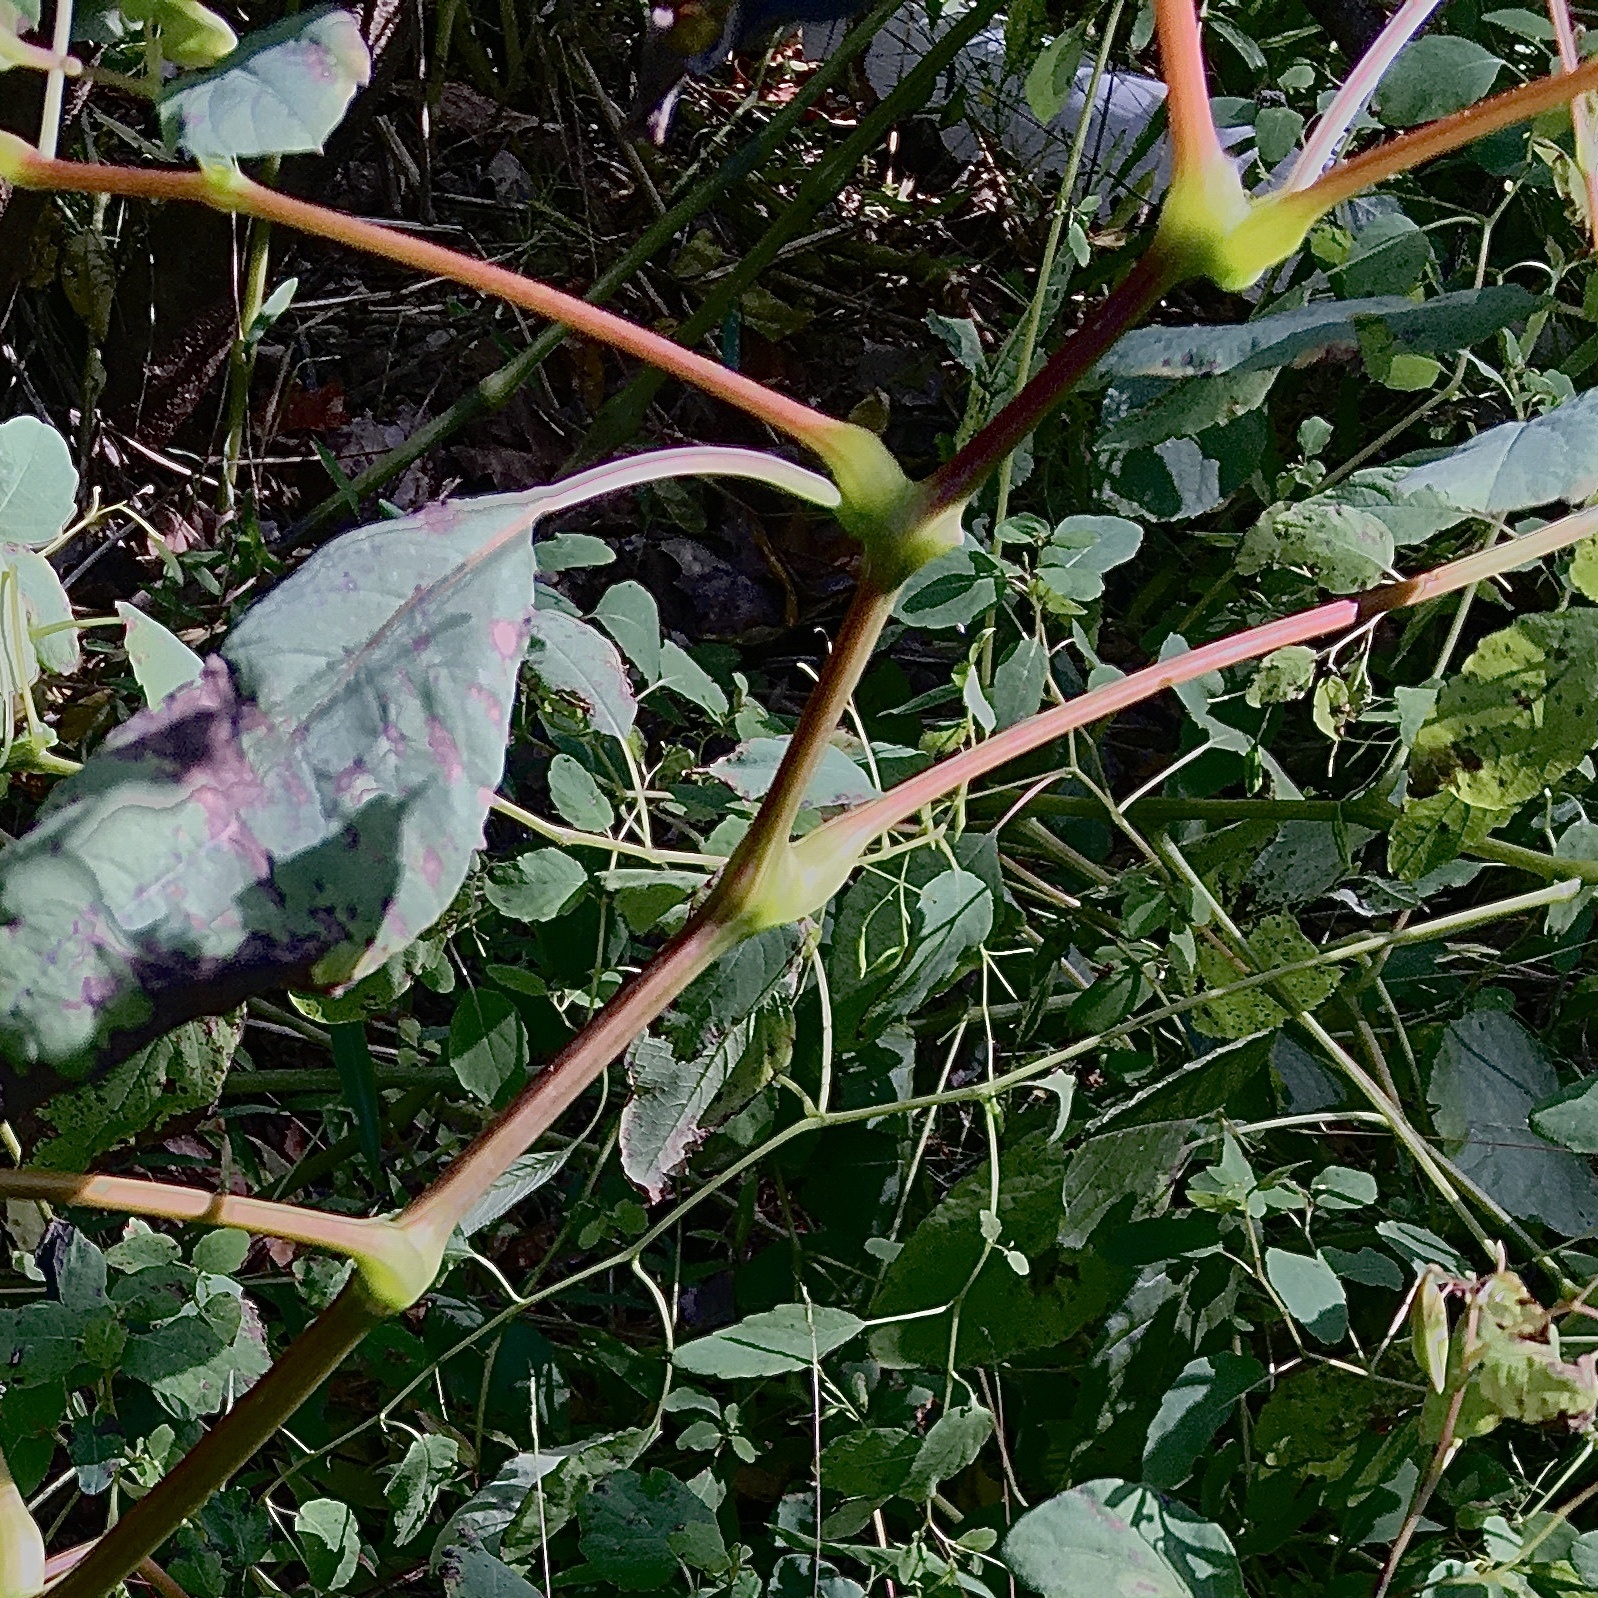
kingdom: Plantae
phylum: Tracheophyta
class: Magnoliopsida
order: Ericales
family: Balsaminaceae
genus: Impatiens
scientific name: Impatiens capensis
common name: Orange balsam
